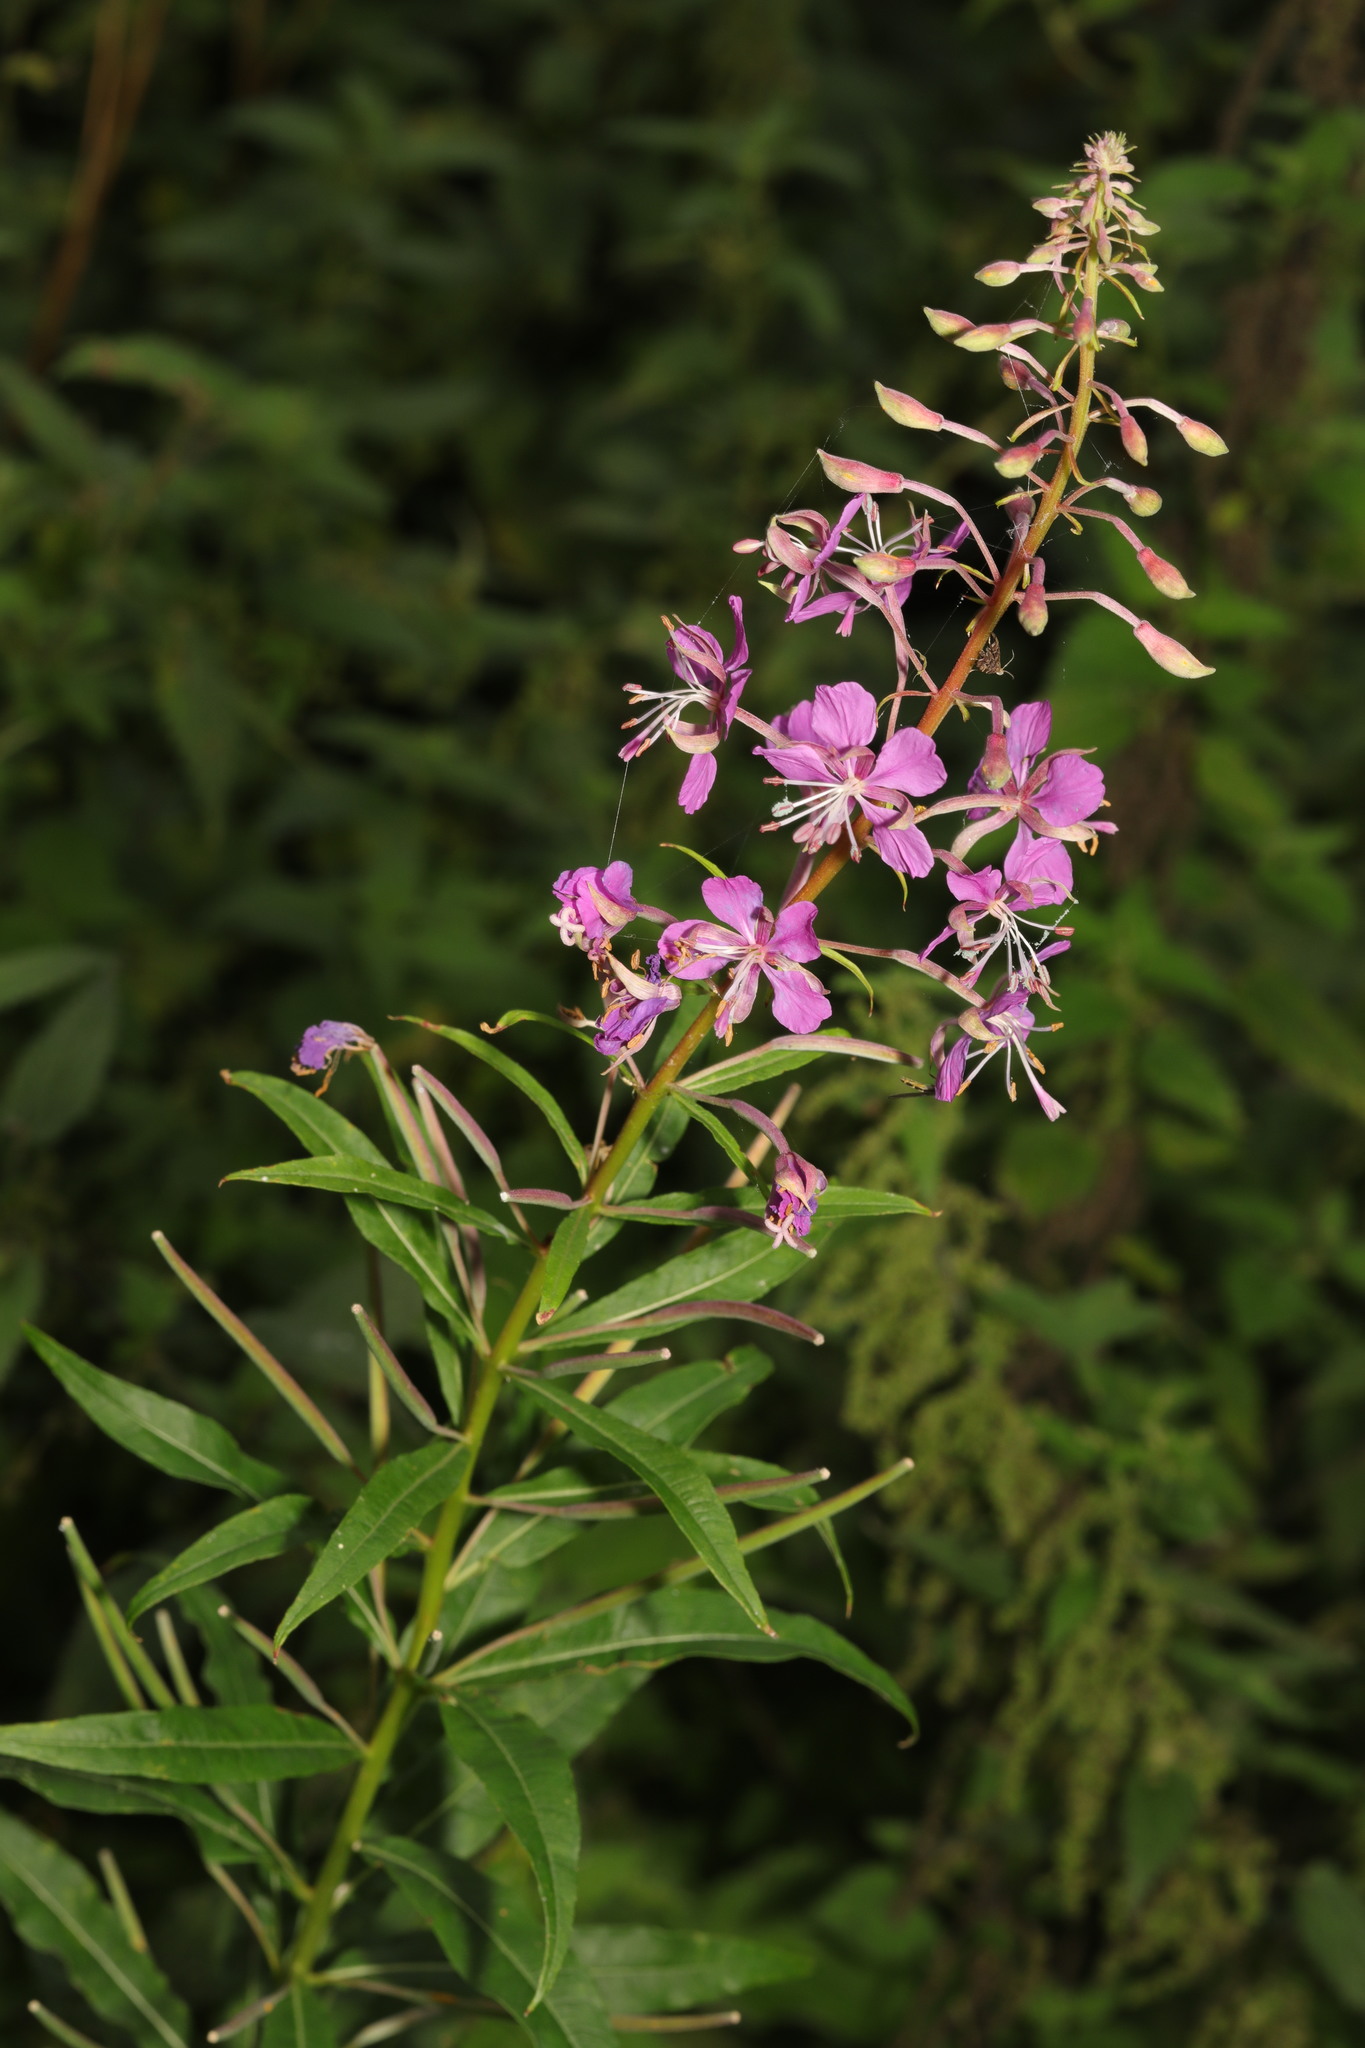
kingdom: Plantae
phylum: Tracheophyta
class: Magnoliopsida
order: Myrtales
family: Onagraceae
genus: Chamaenerion
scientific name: Chamaenerion angustifolium
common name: Fireweed
